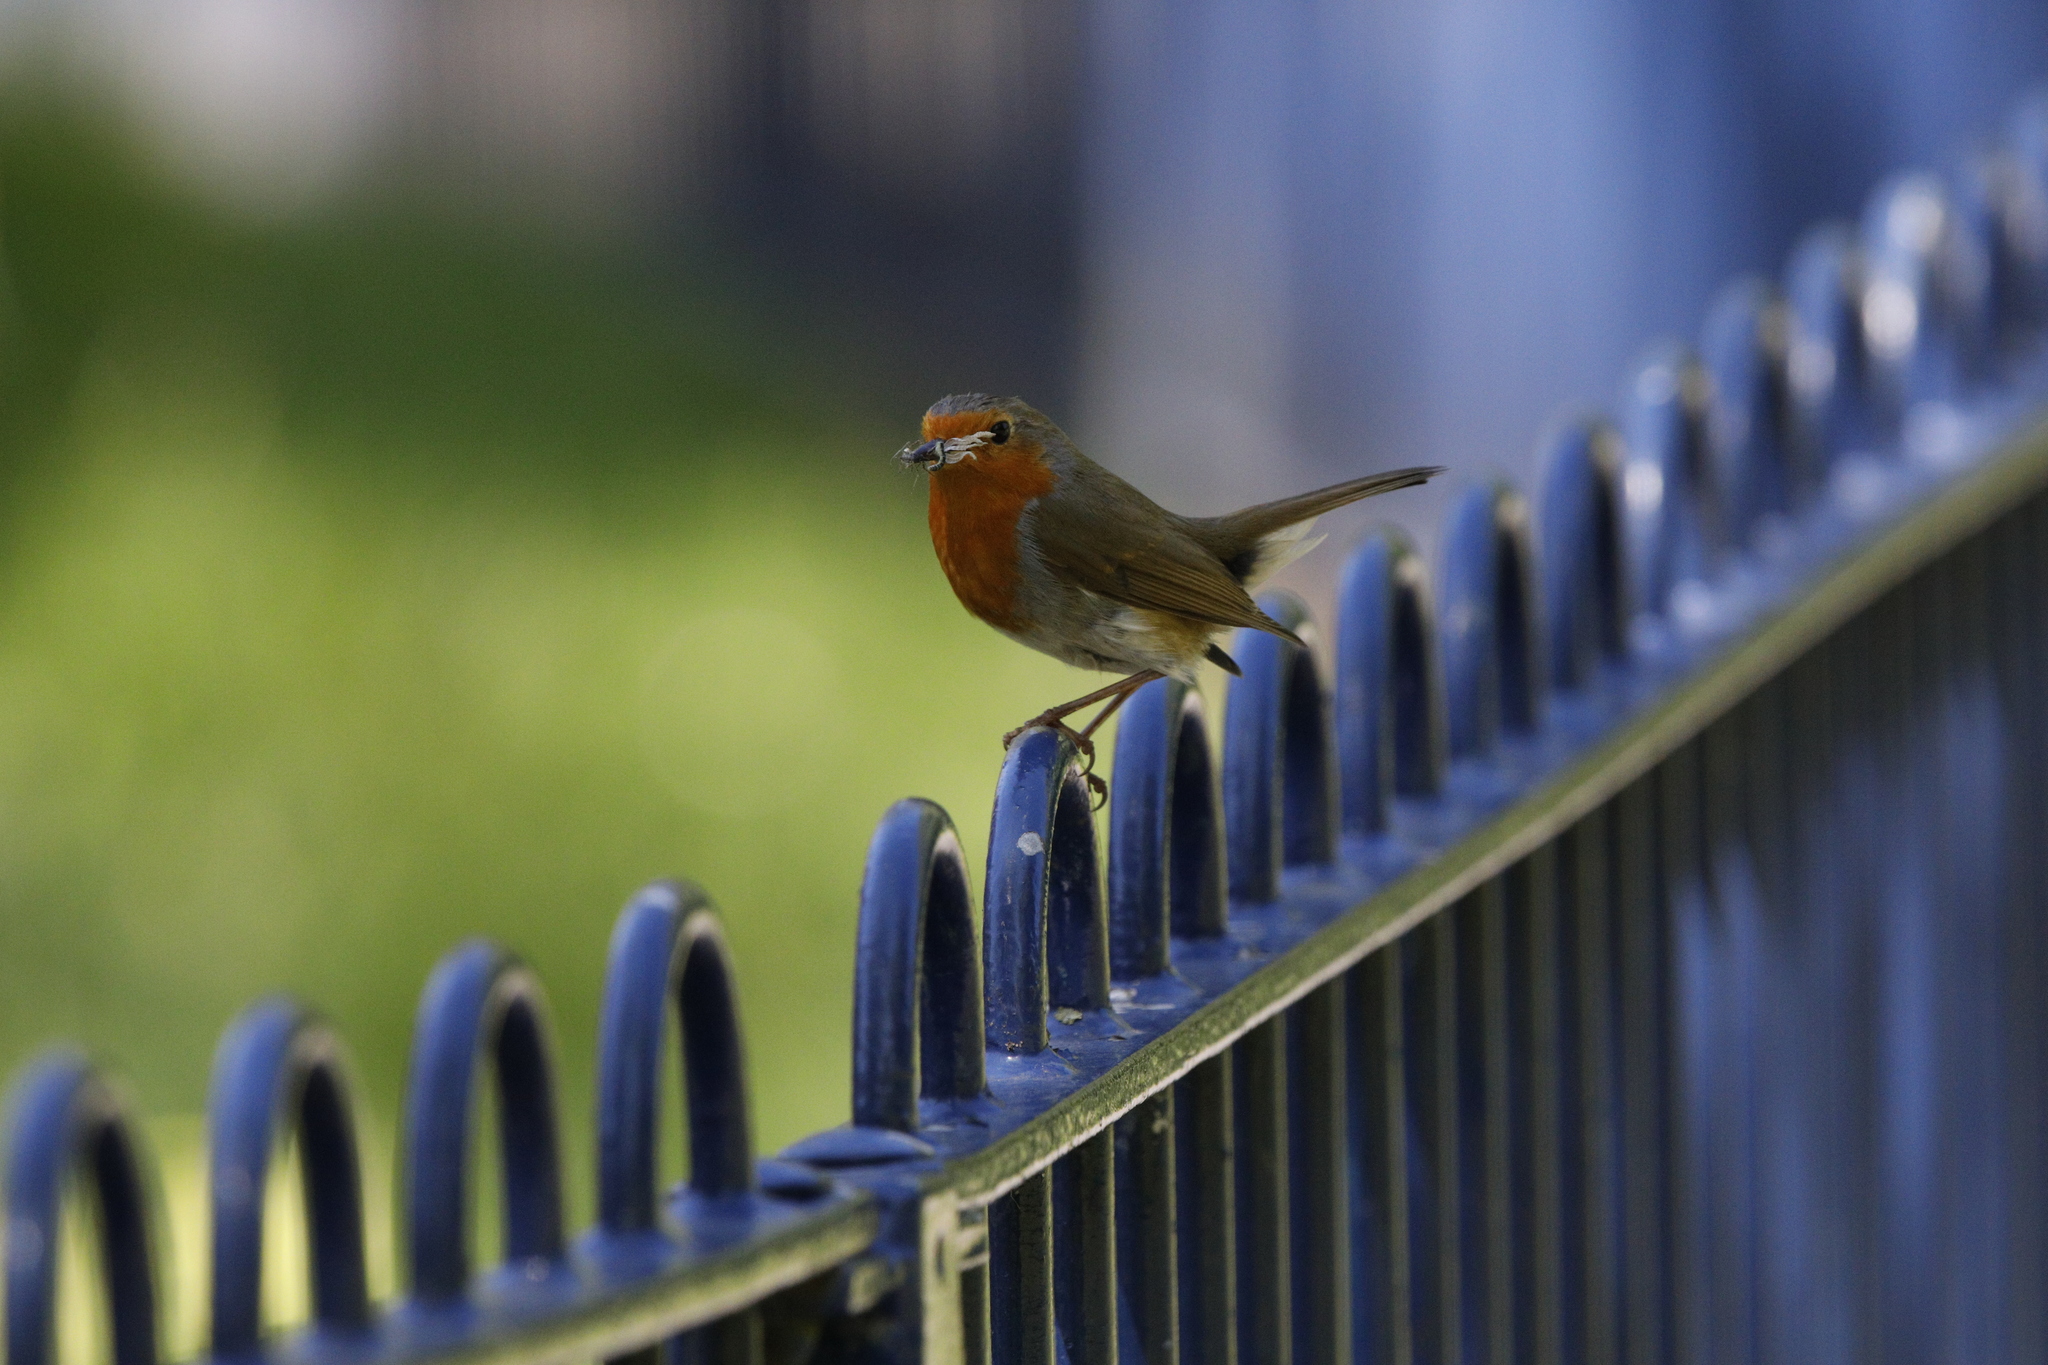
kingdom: Animalia
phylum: Chordata
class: Aves
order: Passeriformes
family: Muscicapidae
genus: Erithacus
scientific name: Erithacus rubecula
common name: European robin
